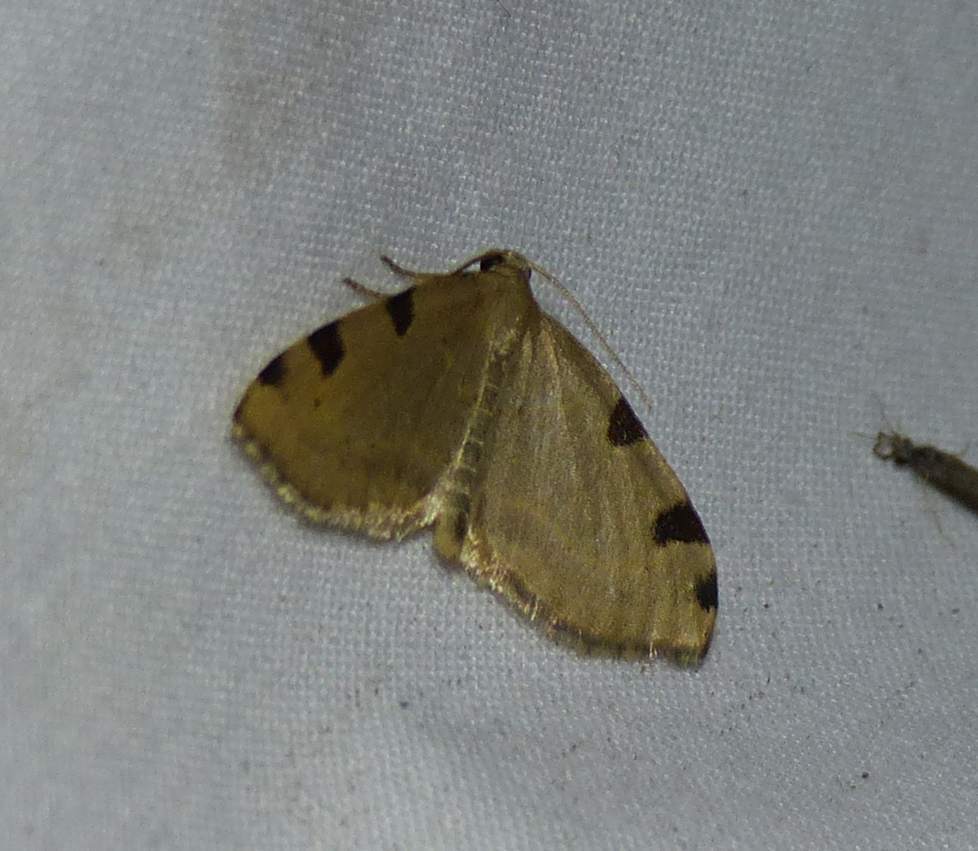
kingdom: Animalia
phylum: Arthropoda
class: Insecta
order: Lepidoptera
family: Geometridae
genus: Heterophleps
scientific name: Heterophleps triguttaria
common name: Three-spotted fillip
